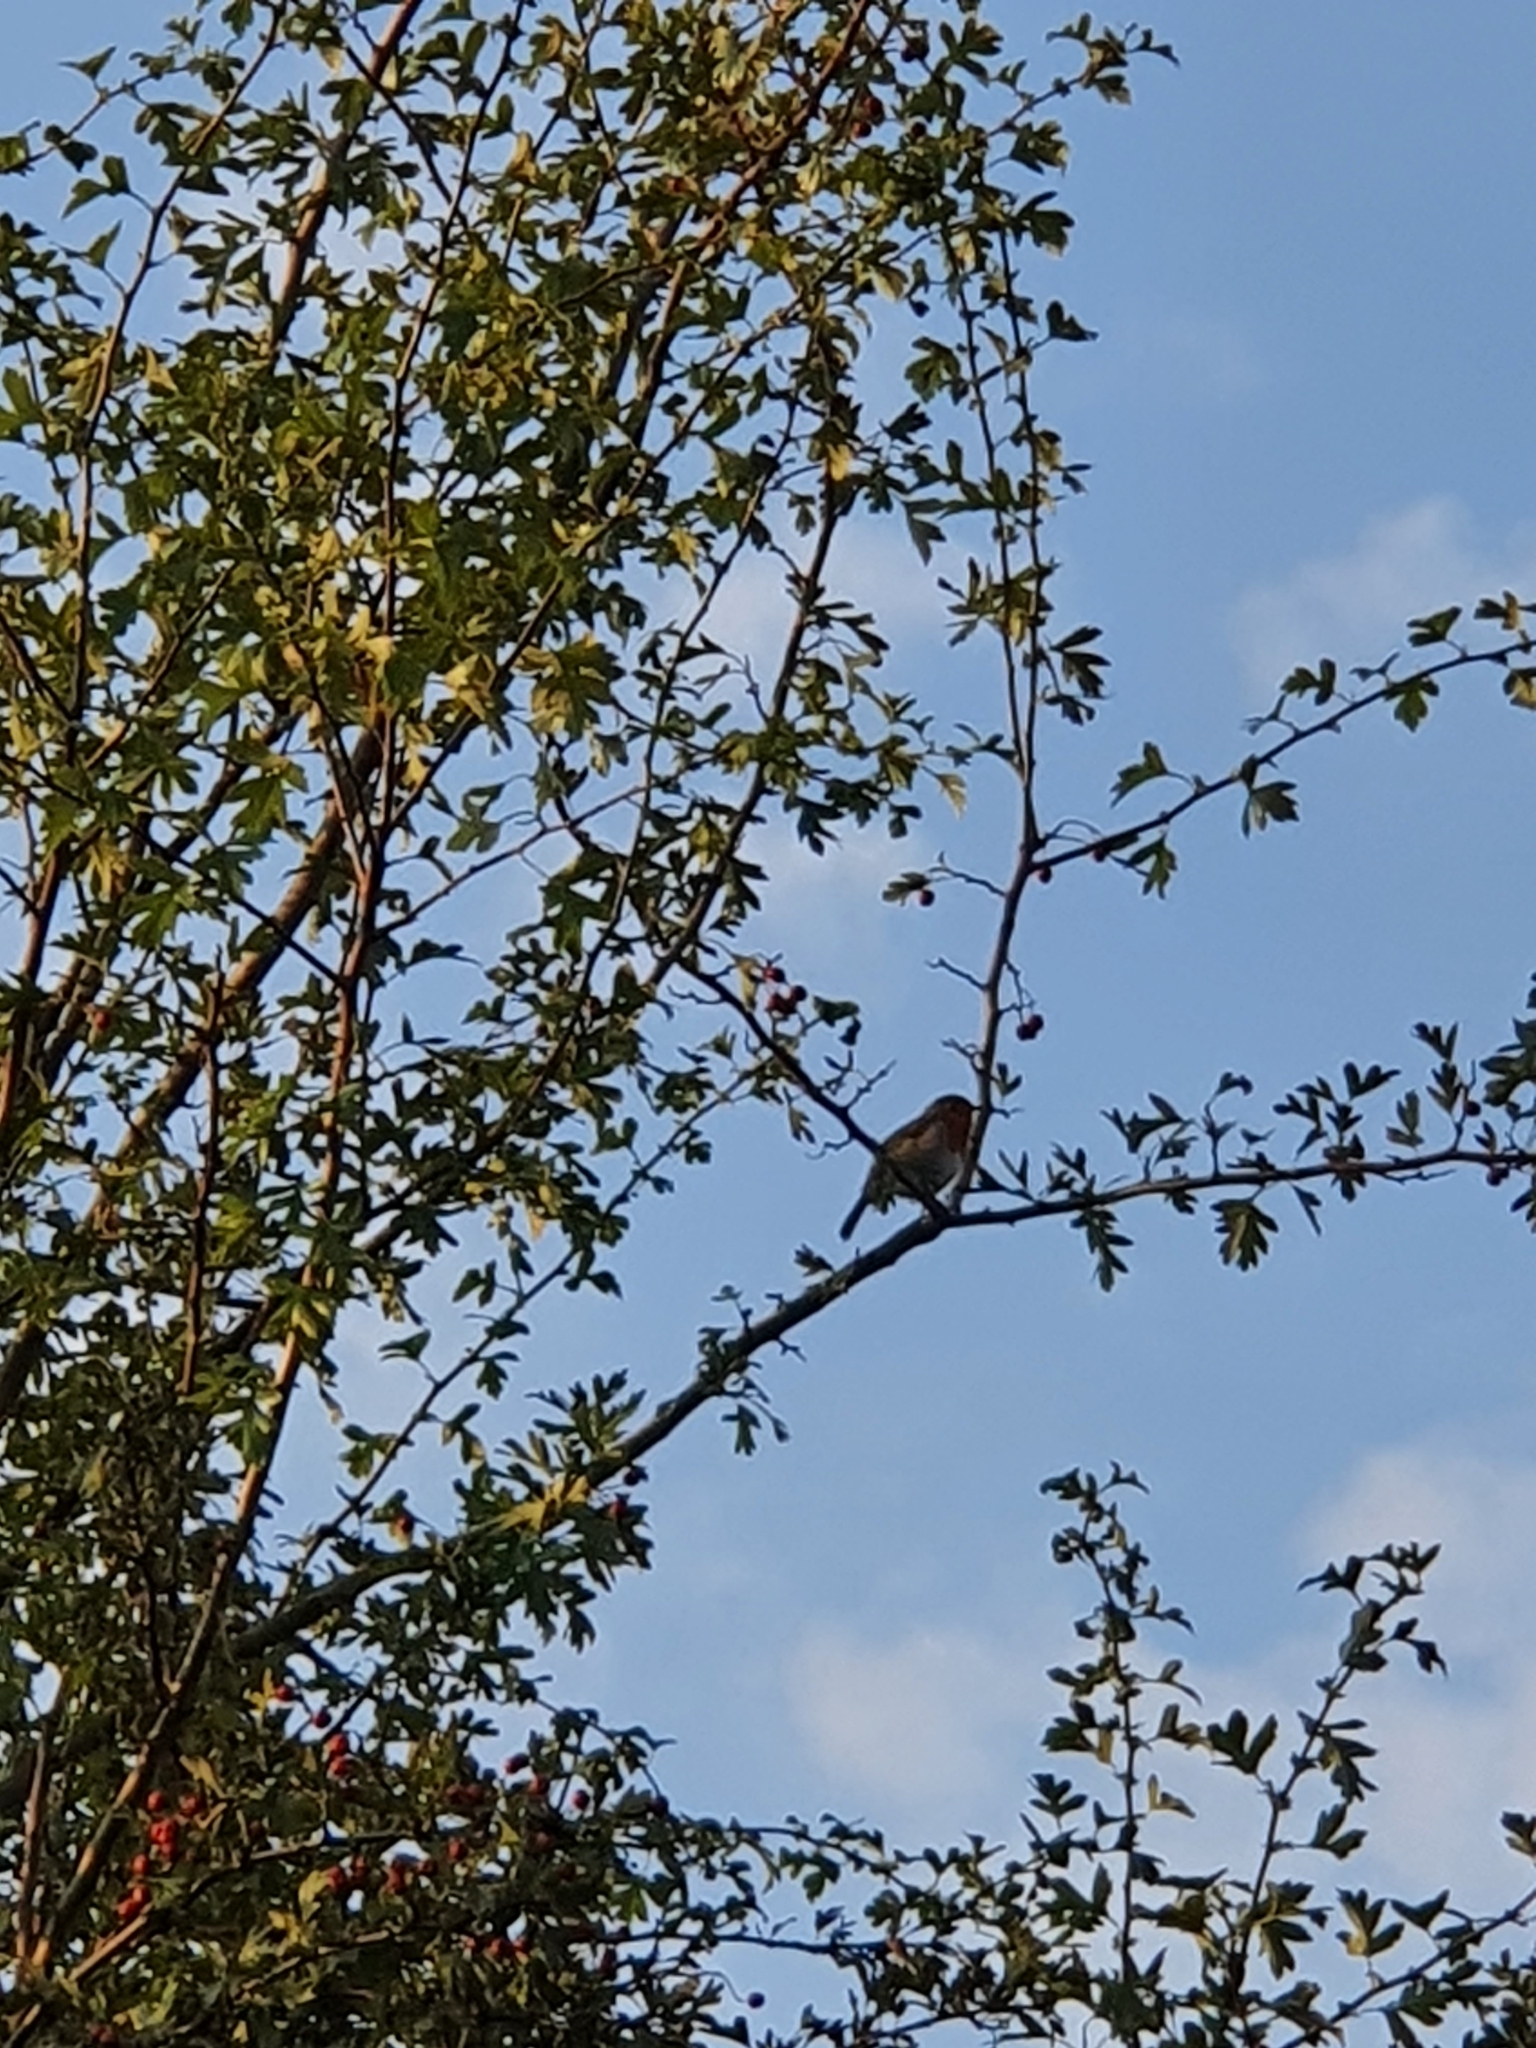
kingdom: Animalia
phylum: Chordata
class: Aves
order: Passeriformes
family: Muscicapidae
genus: Erithacus
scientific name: Erithacus rubecula
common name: European robin
